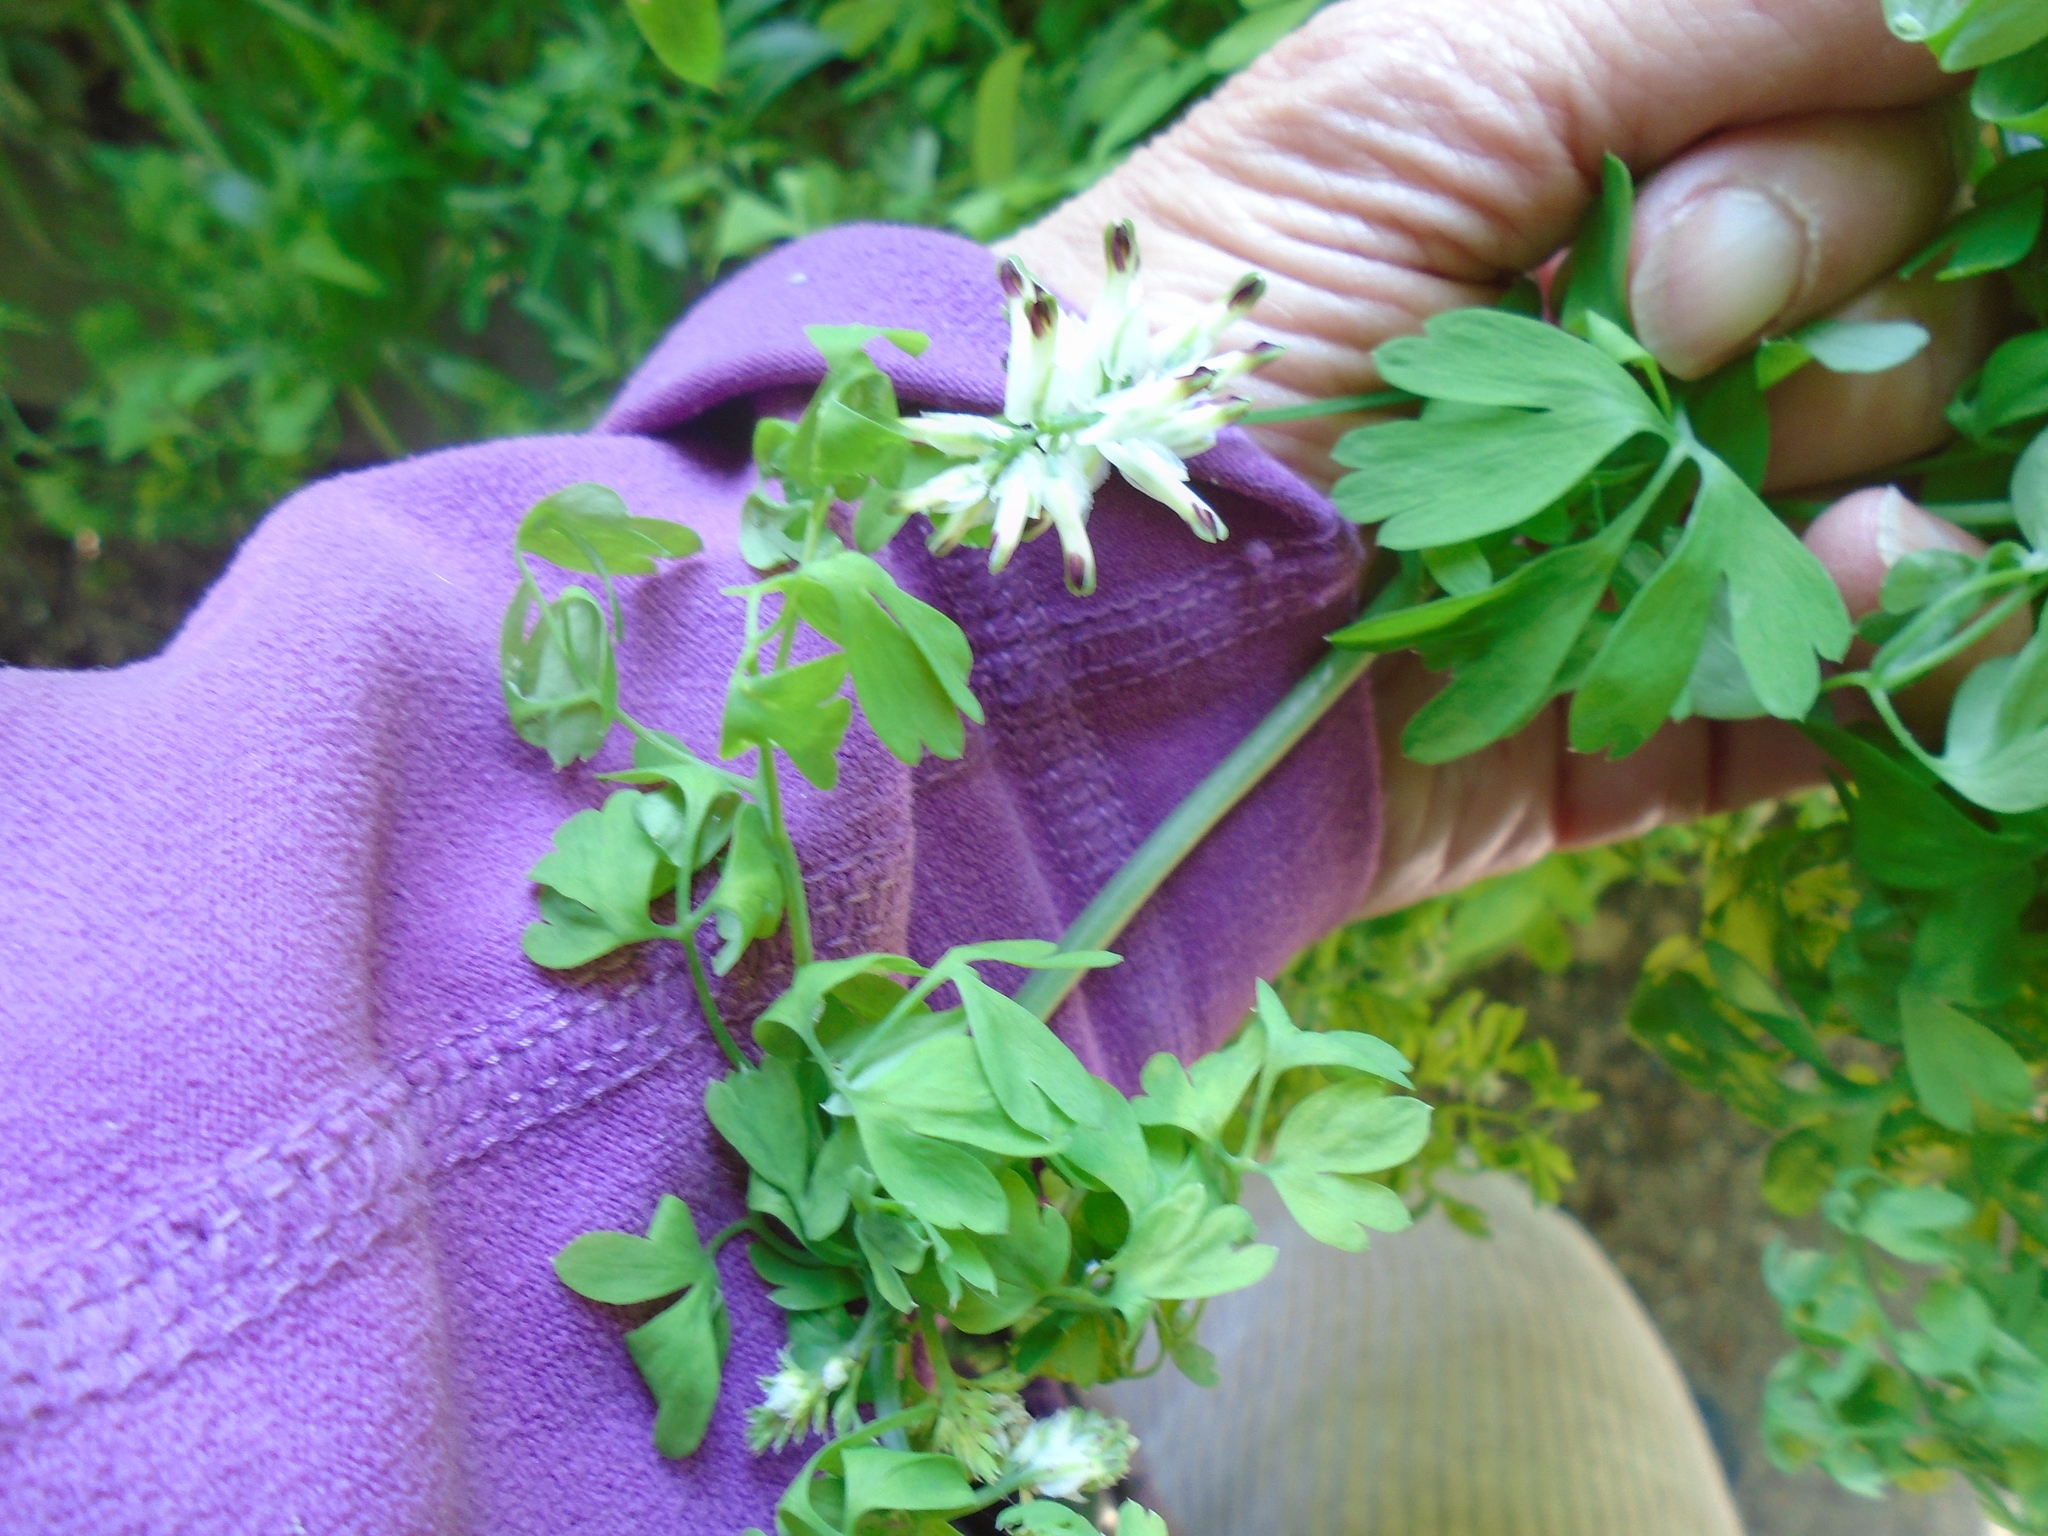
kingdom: Plantae
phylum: Tracheophyta
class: Magnoliopsida
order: Ranunculales
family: Papaveraceae
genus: Fumaria
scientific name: Fumaria capreolata
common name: White ramping-fumitory
